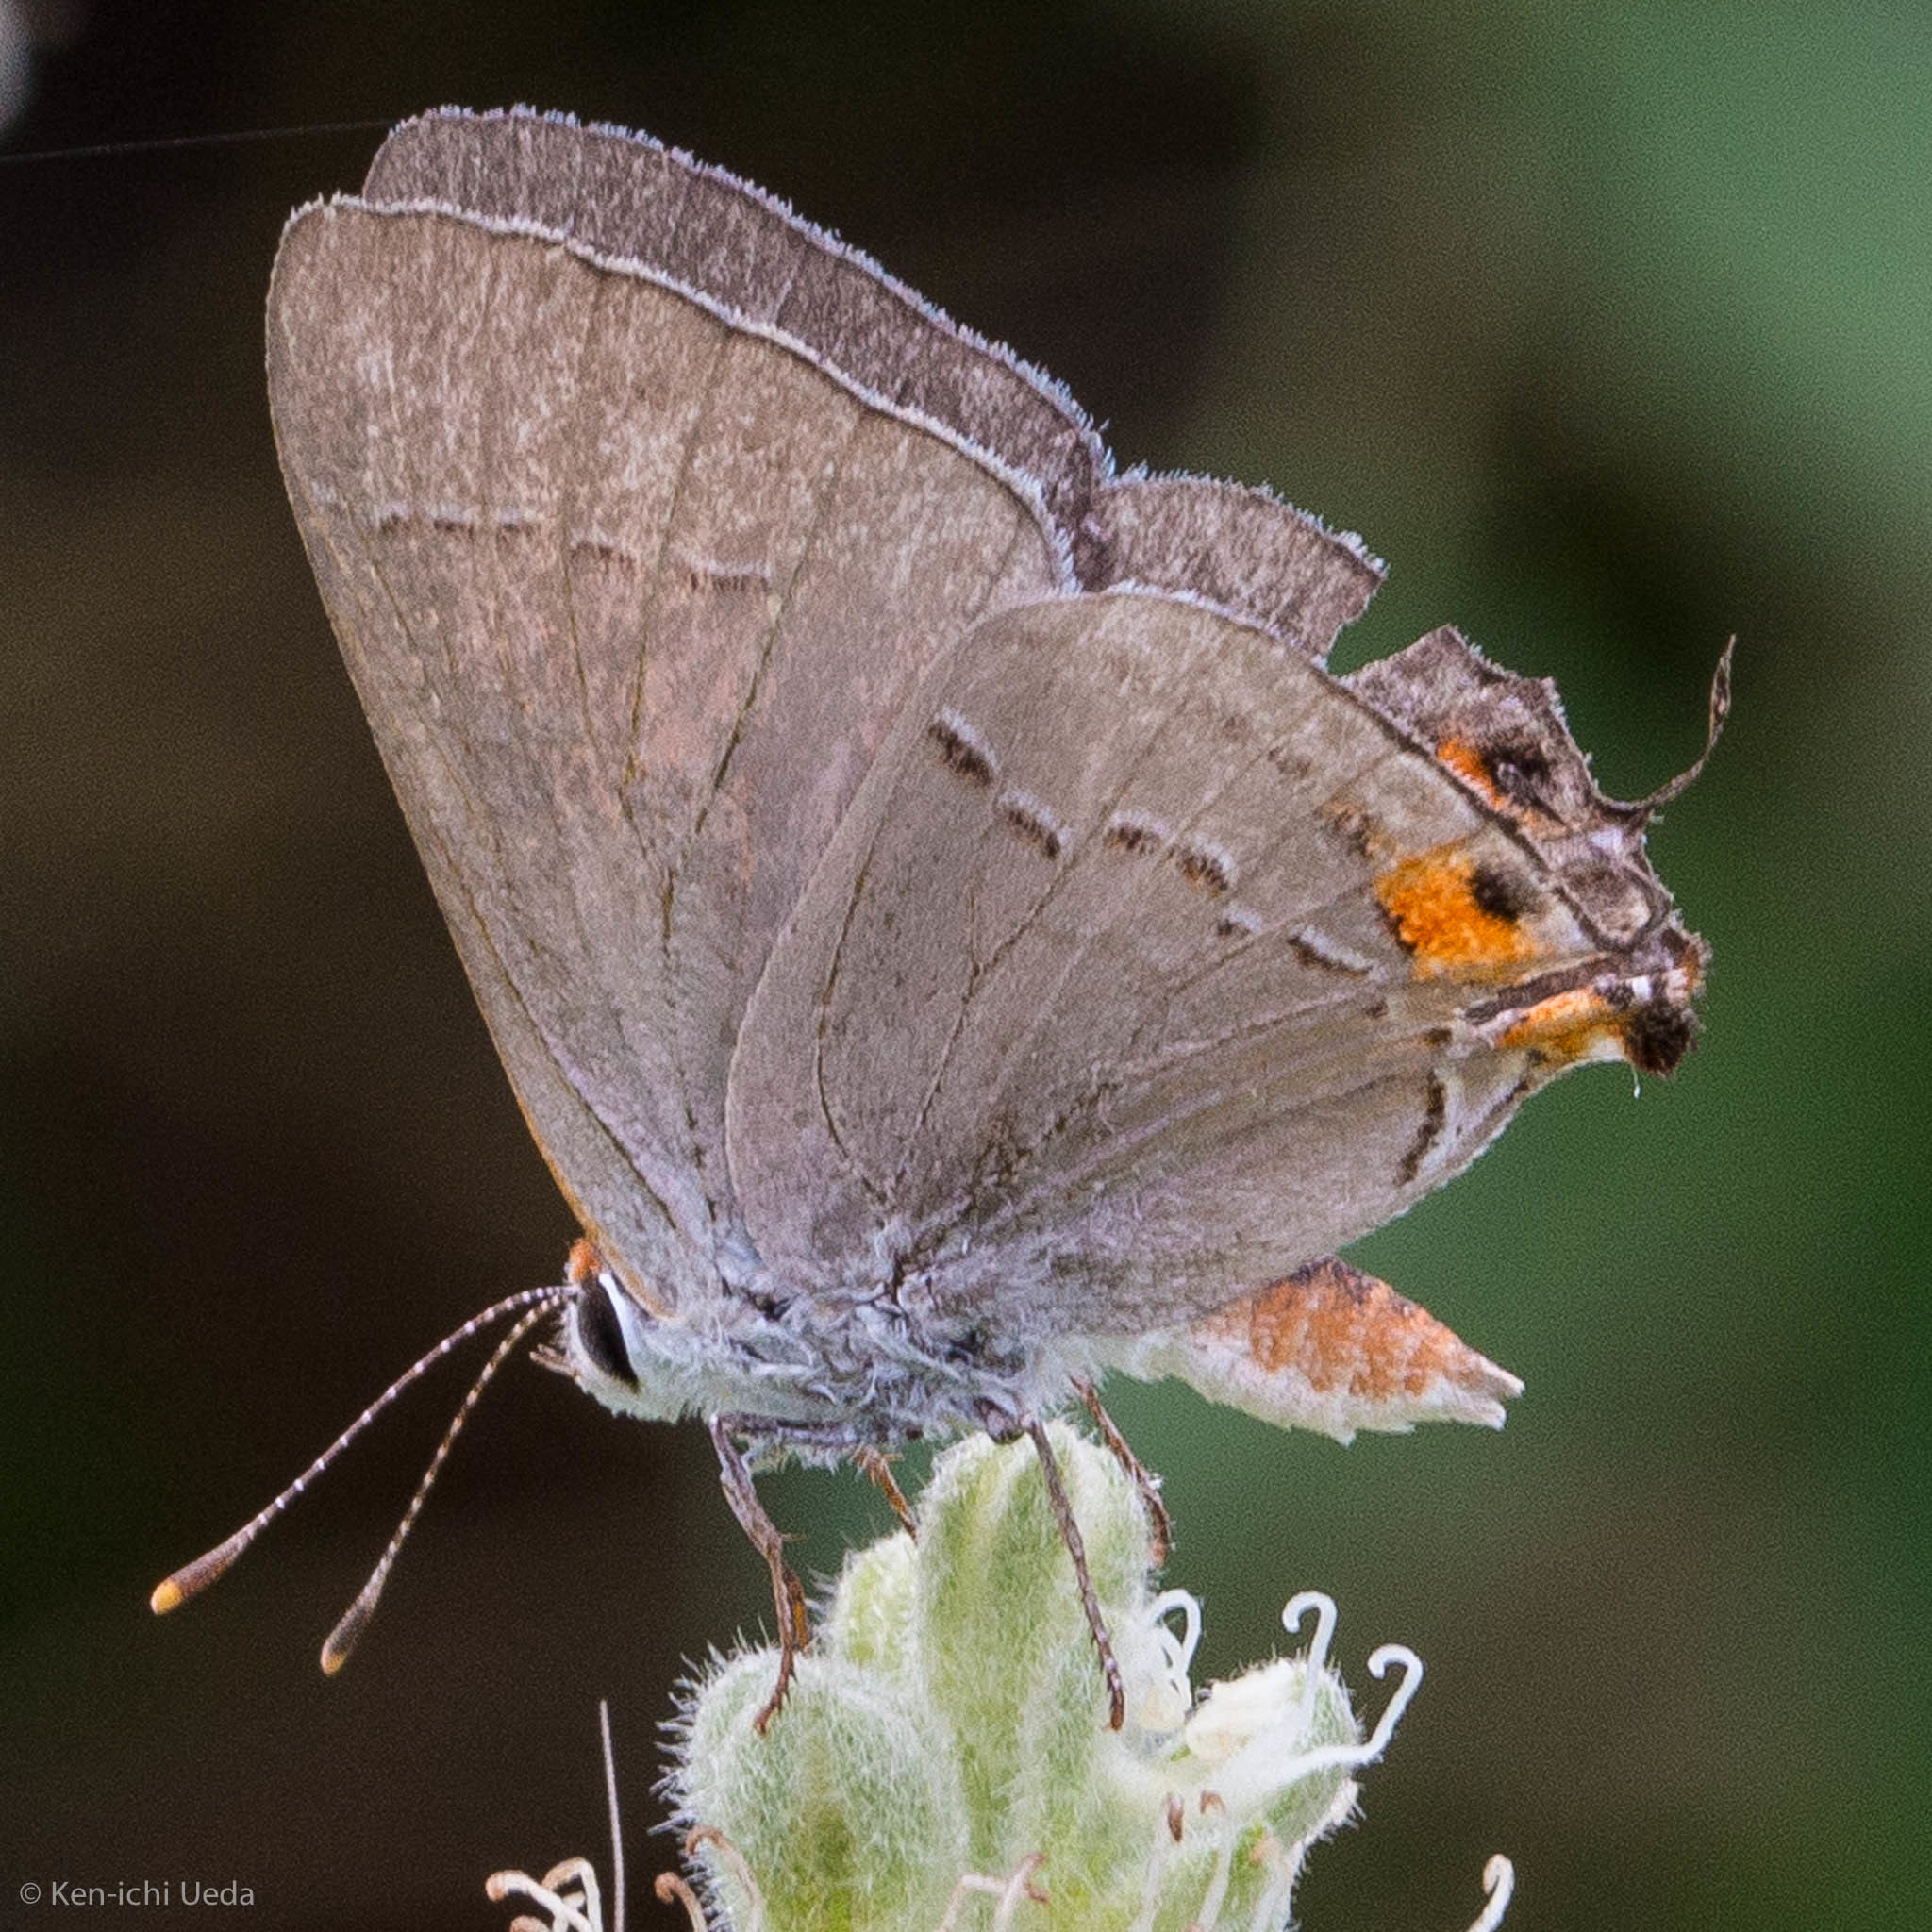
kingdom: Animalia
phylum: Arthropoda
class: Insecta
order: Lepidoptera
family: Lycaenidae
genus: Strymon
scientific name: Strymon melinus
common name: Gray hairstreak
